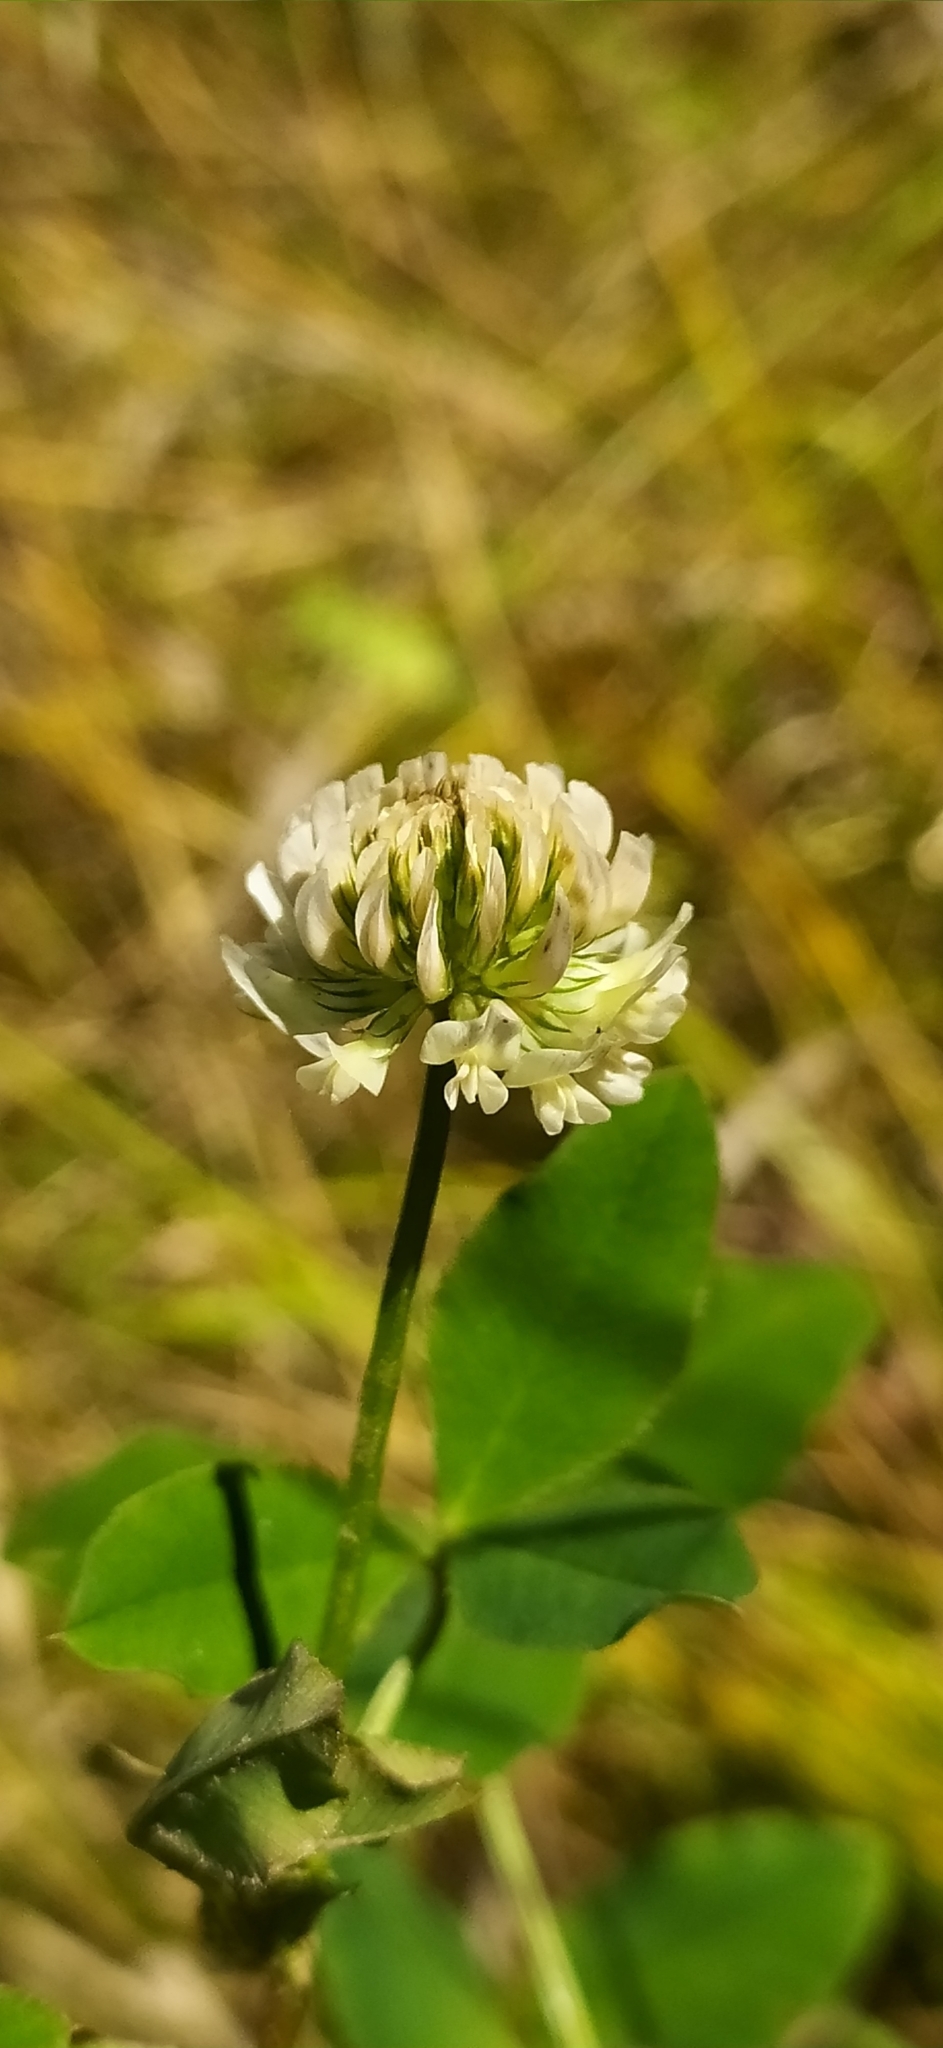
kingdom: Plantae
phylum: Tracheophyta
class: Magnoliopsida
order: Fabales
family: Fabaceae
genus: Trifolium
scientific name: Trifolium repens
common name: White clover
